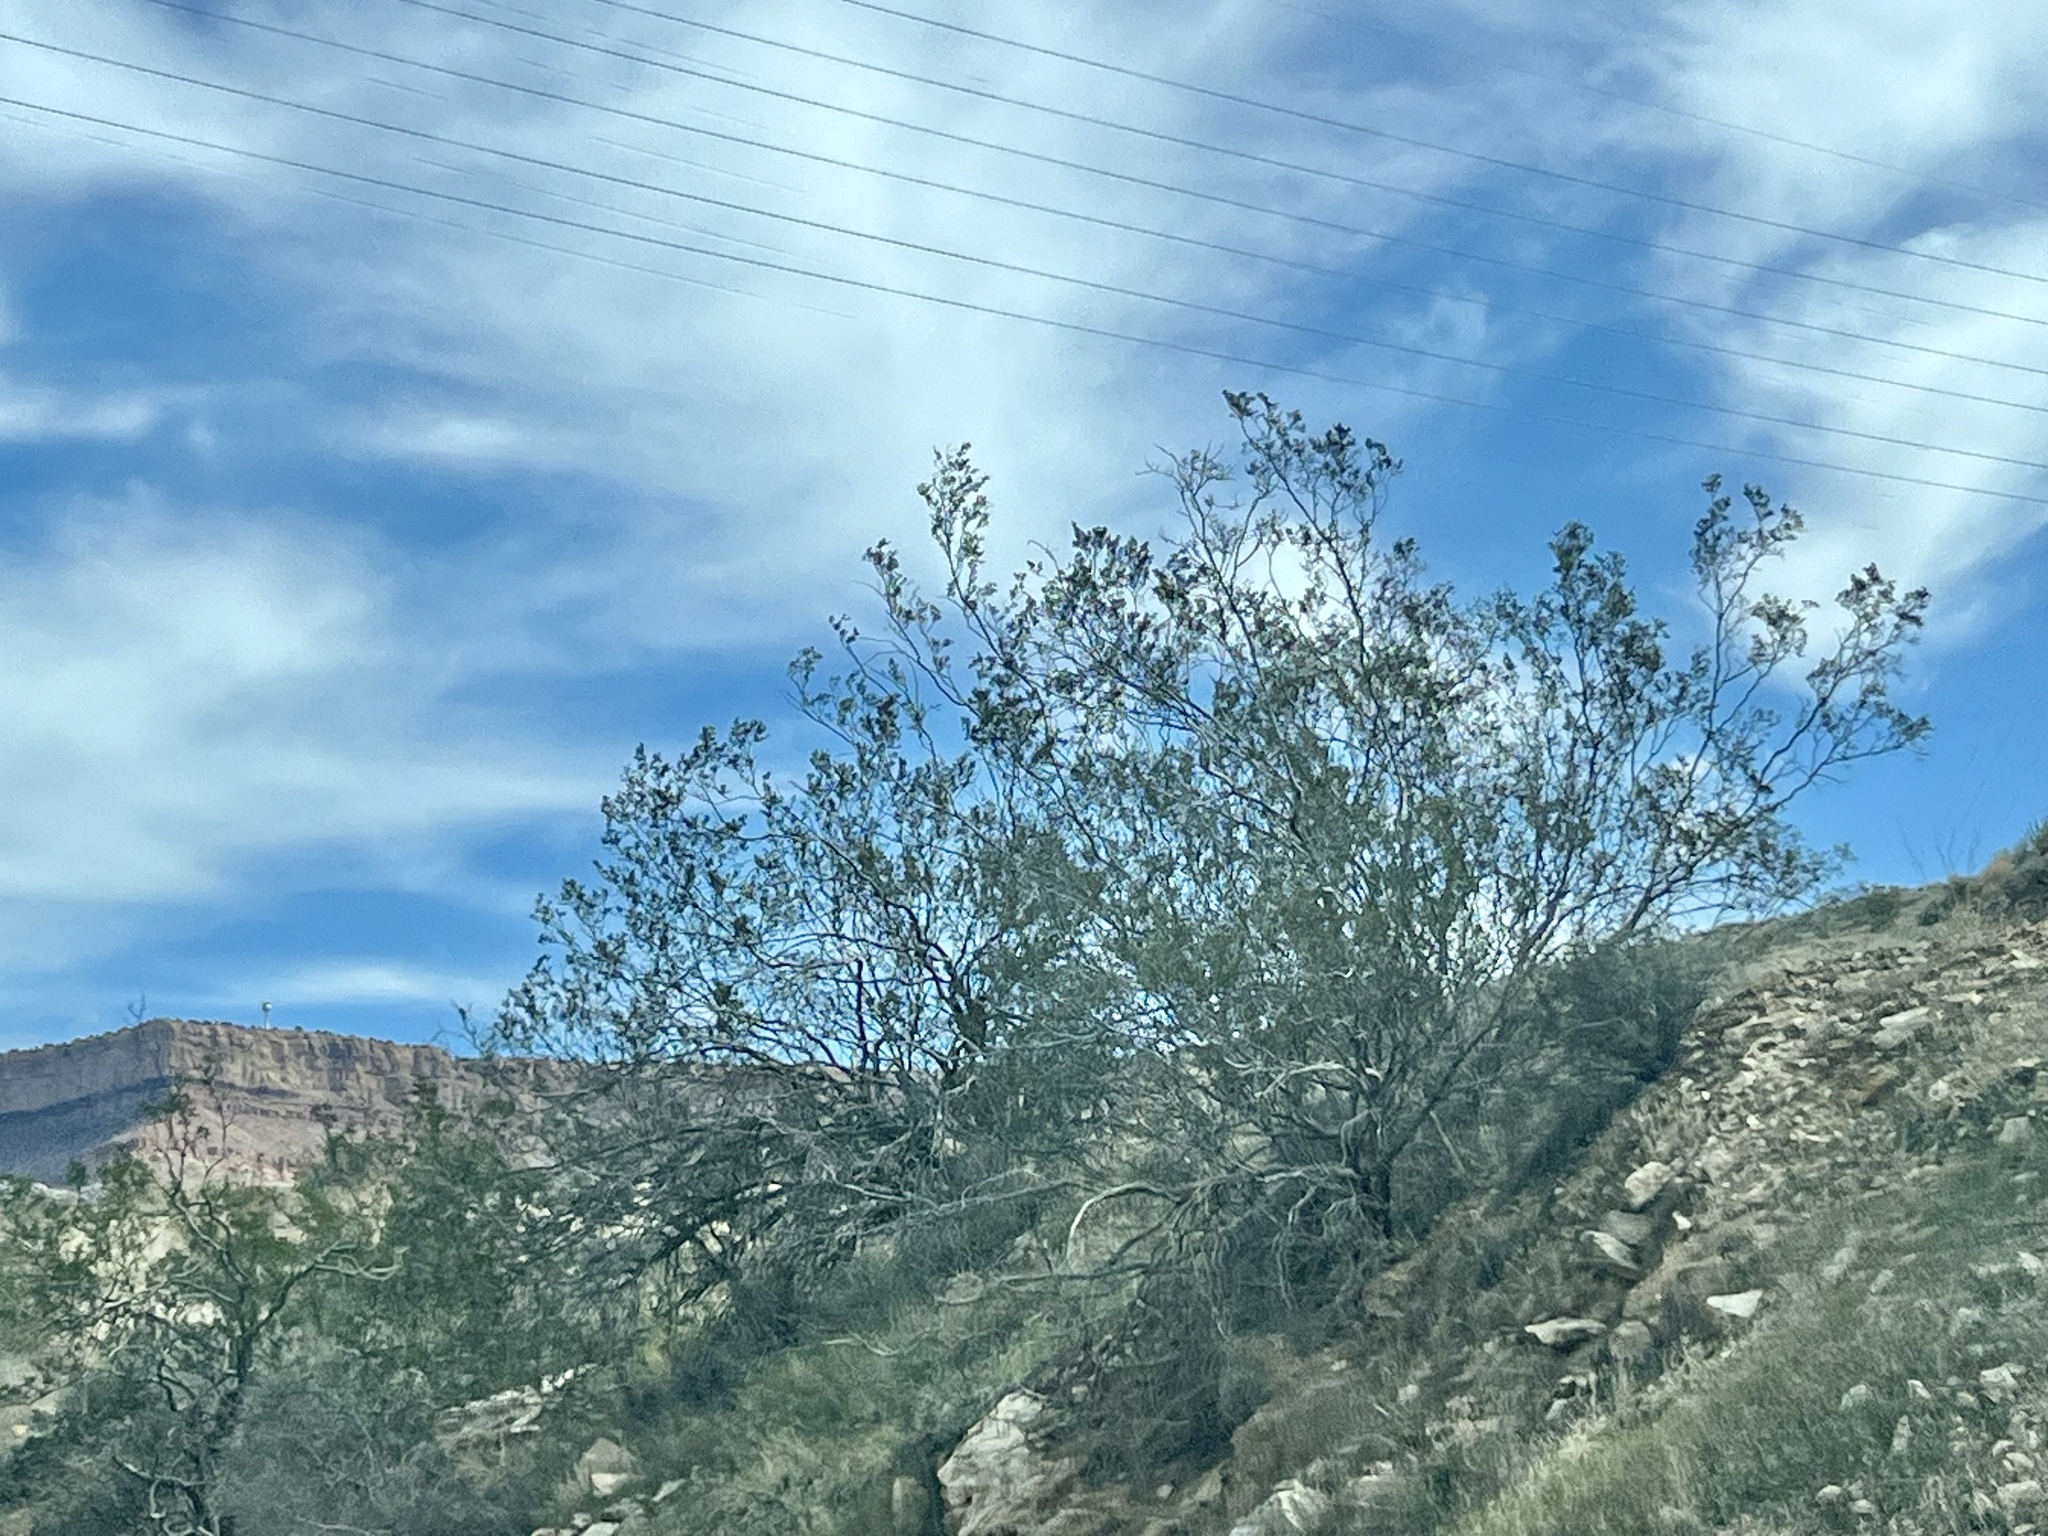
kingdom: Plantae
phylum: Tracheophyta
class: Magnoliopsida
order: Zygophyllales
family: Zygophyllaceae
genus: Larrea
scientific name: Larrea tridentata
